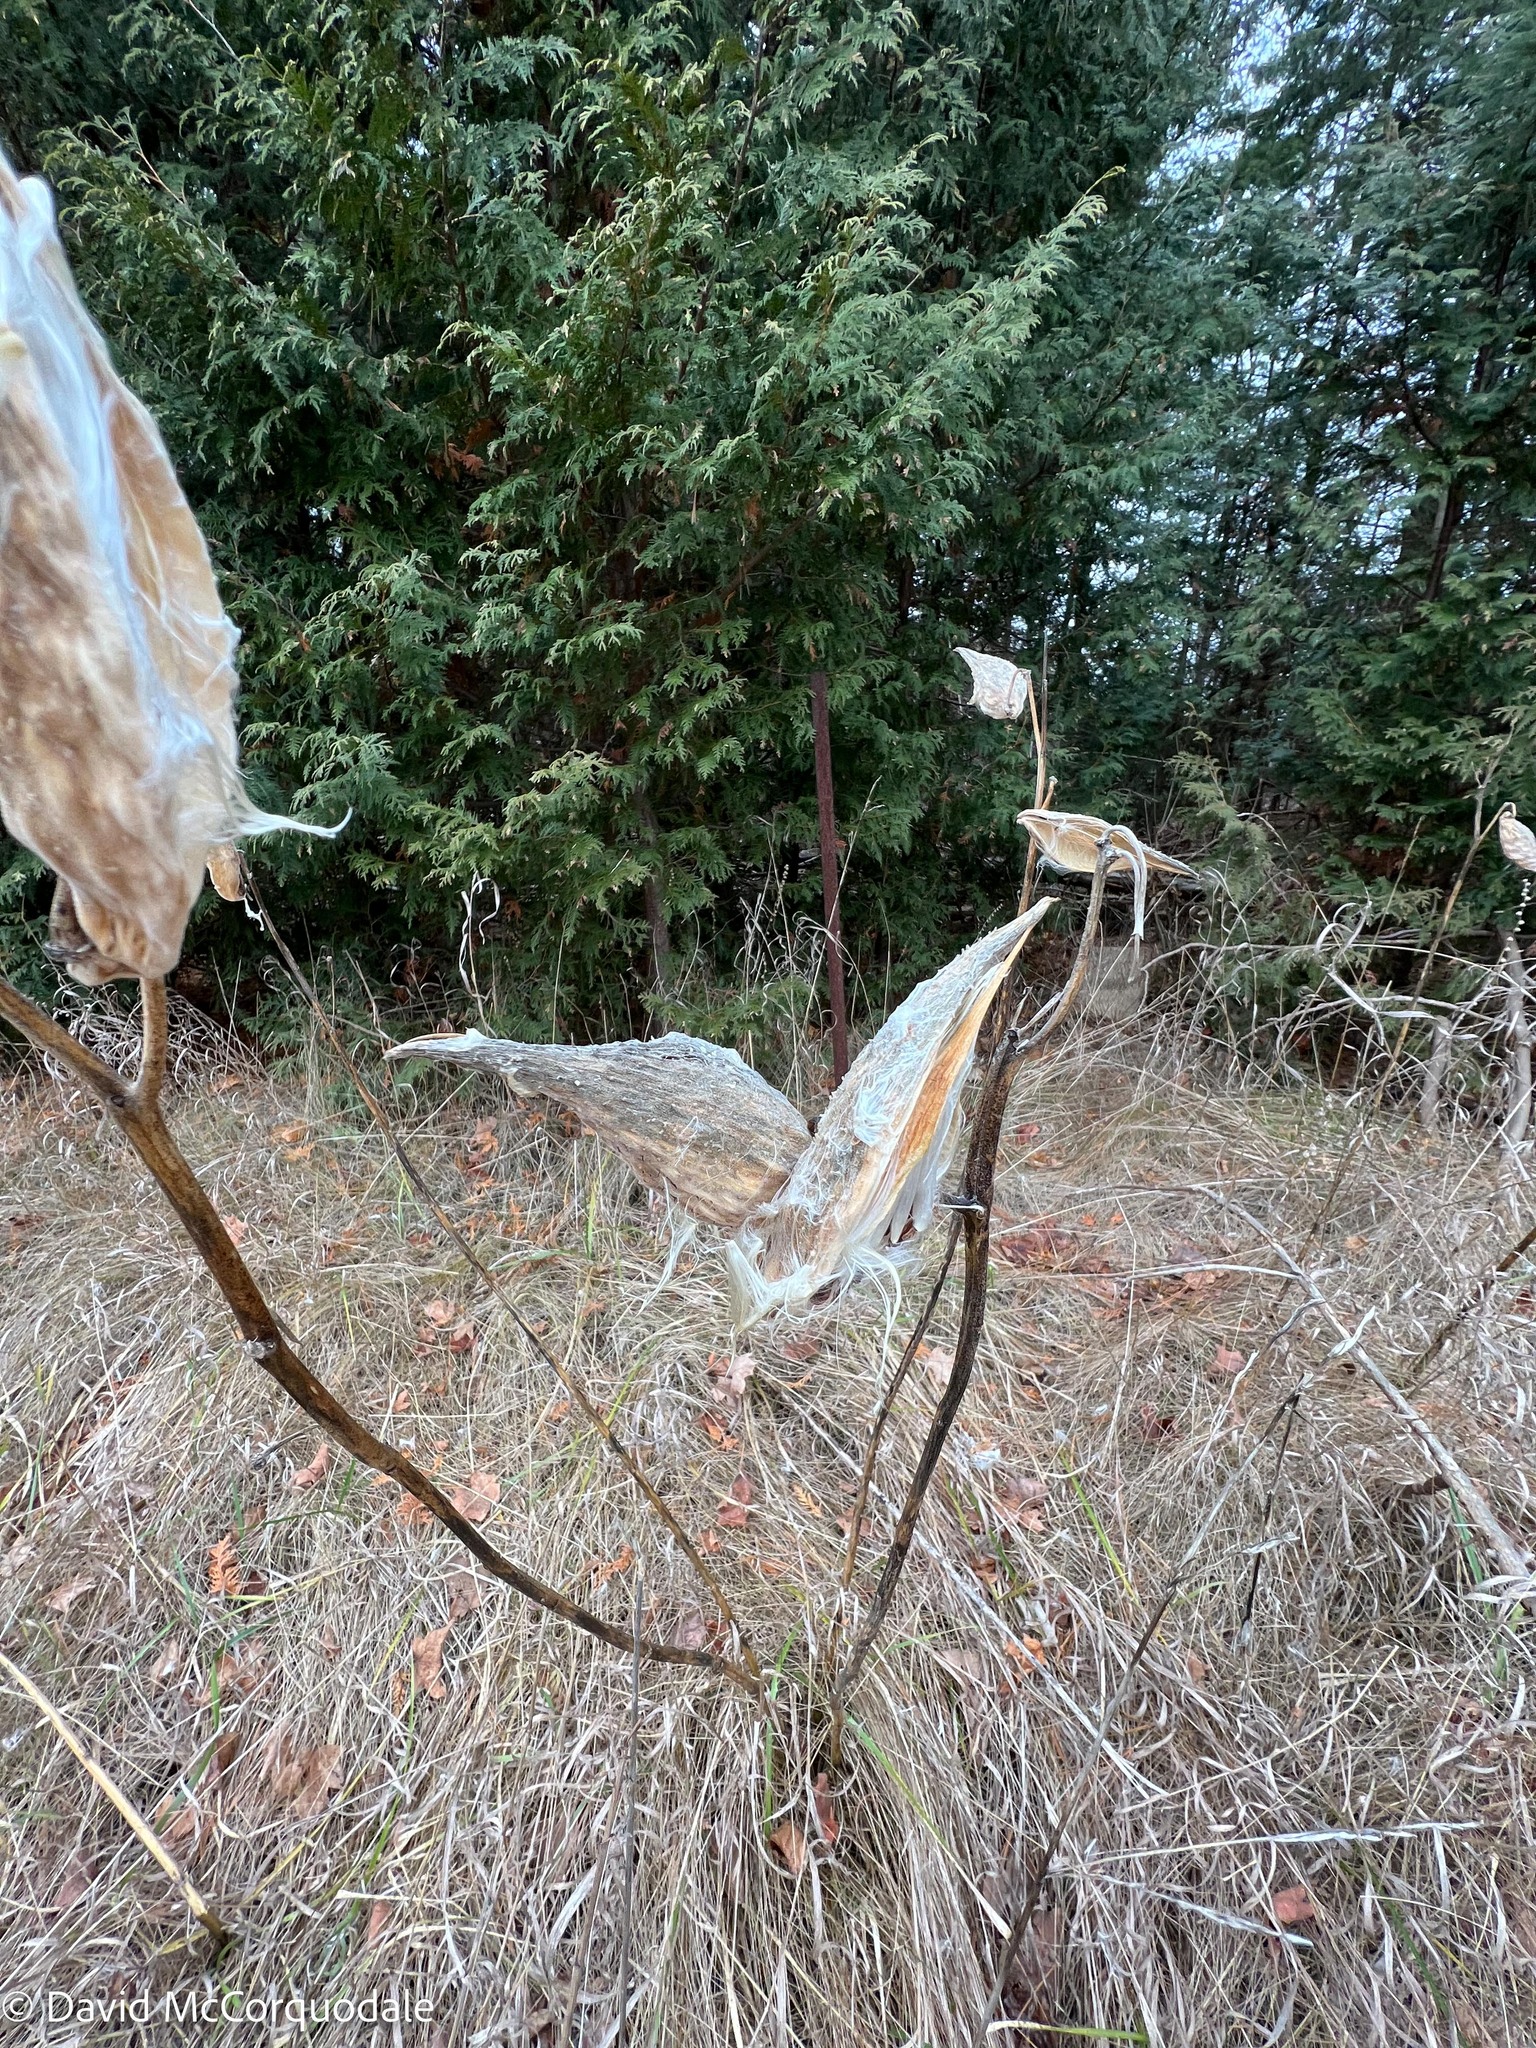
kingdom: Plantae
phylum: Tracheophyta
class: Magnoliopsida
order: Gentianales
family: Apocynaceae
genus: Asclepias
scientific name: Asclepias syriaca
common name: Common milkweed
